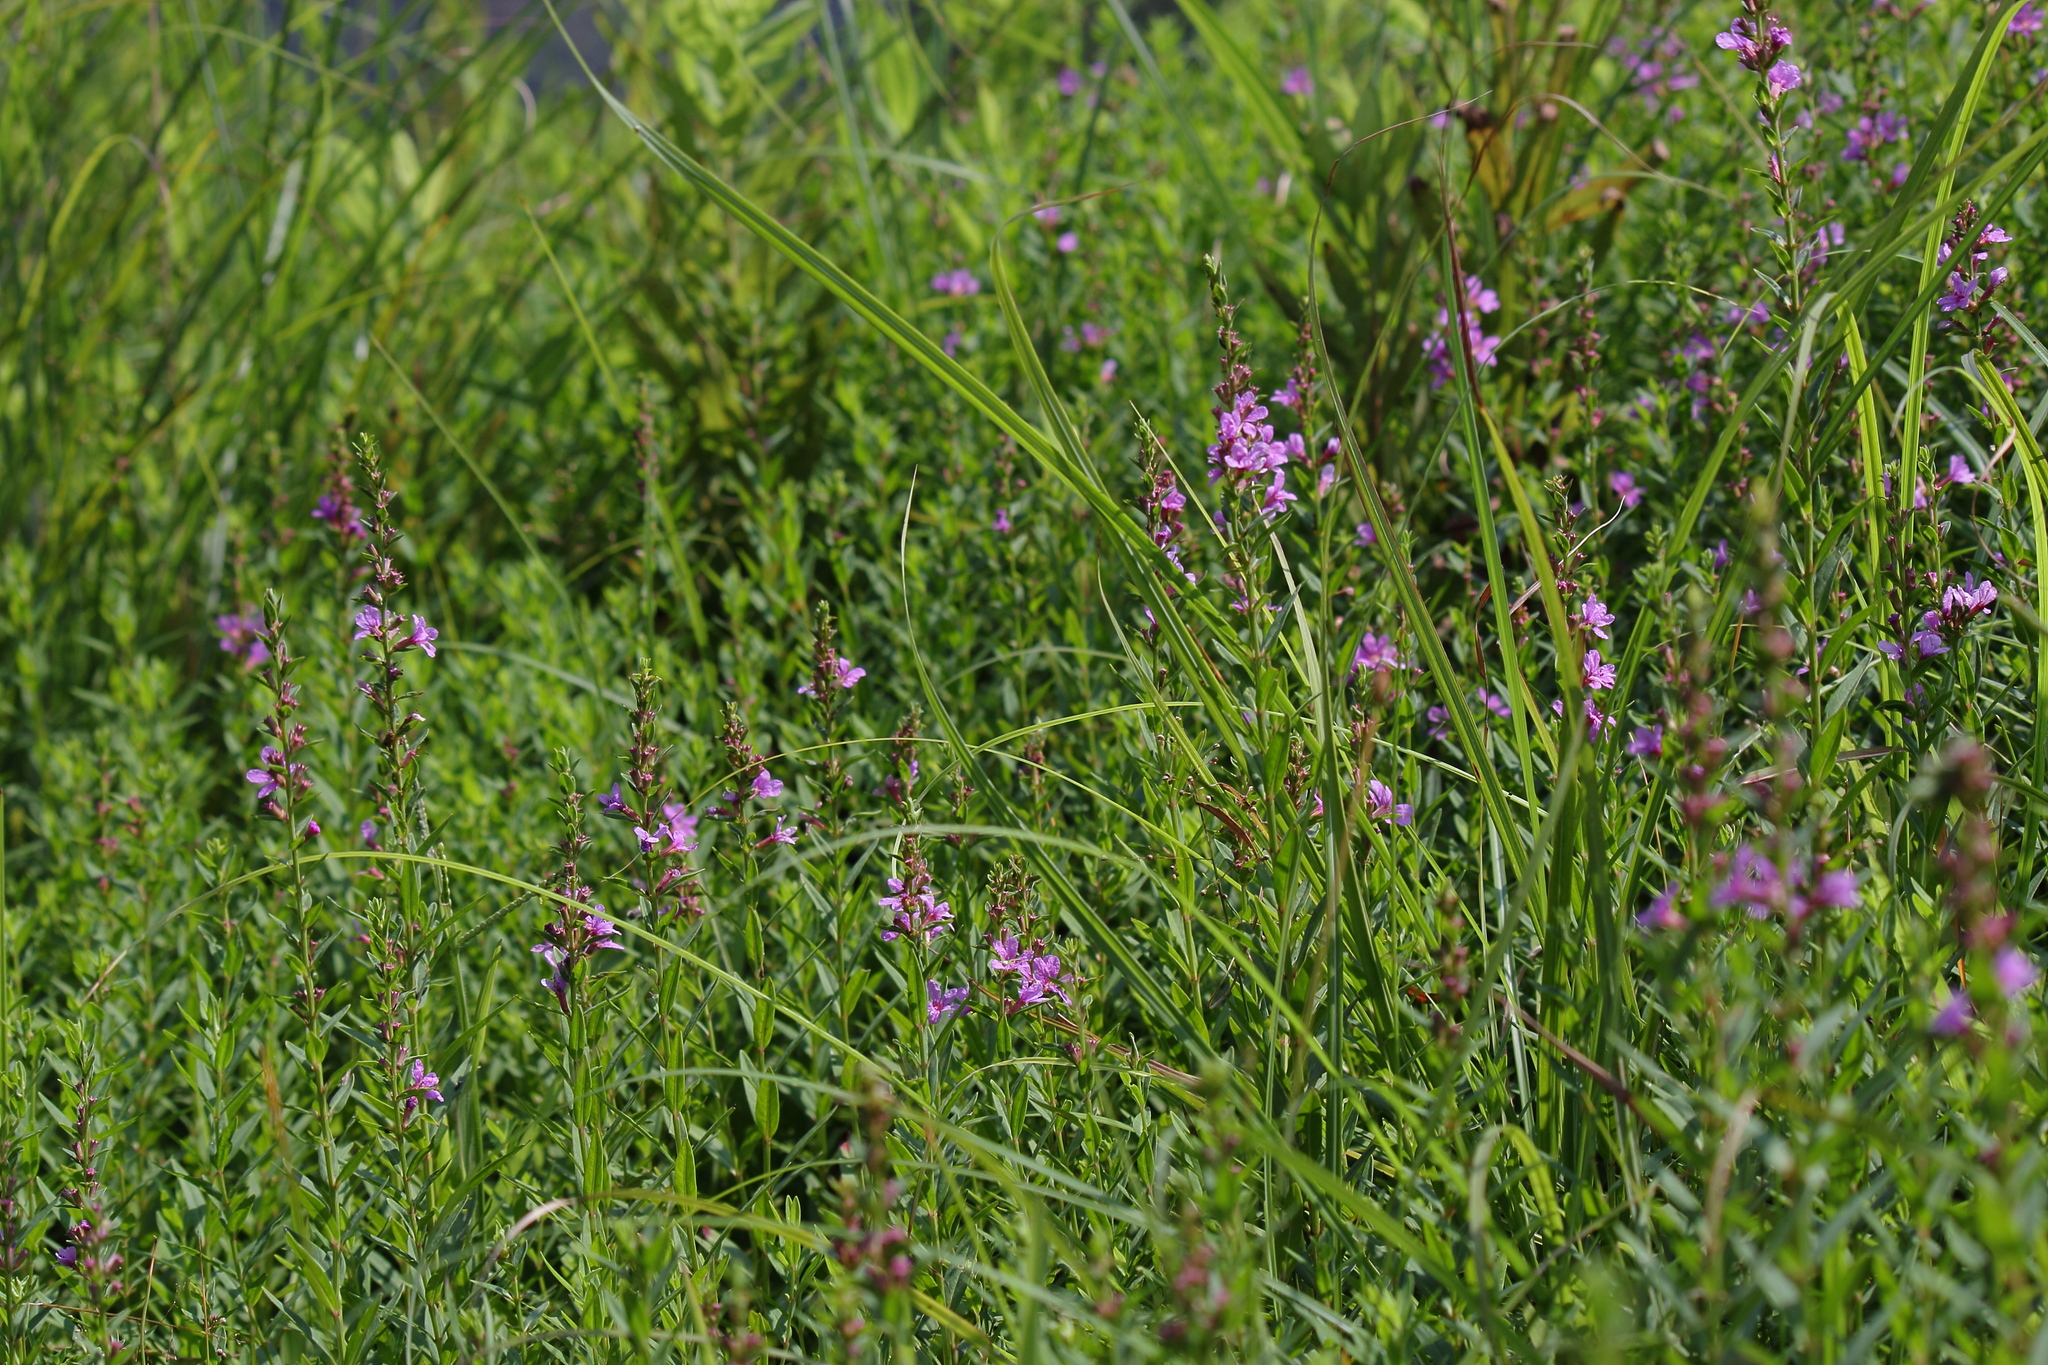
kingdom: Plantae
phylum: Tracheophyta
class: Magnoliopsida
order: Myrtales
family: Lythraceae
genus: Lythrum
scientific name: Lythrum salicaria
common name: Purple loosestrife
